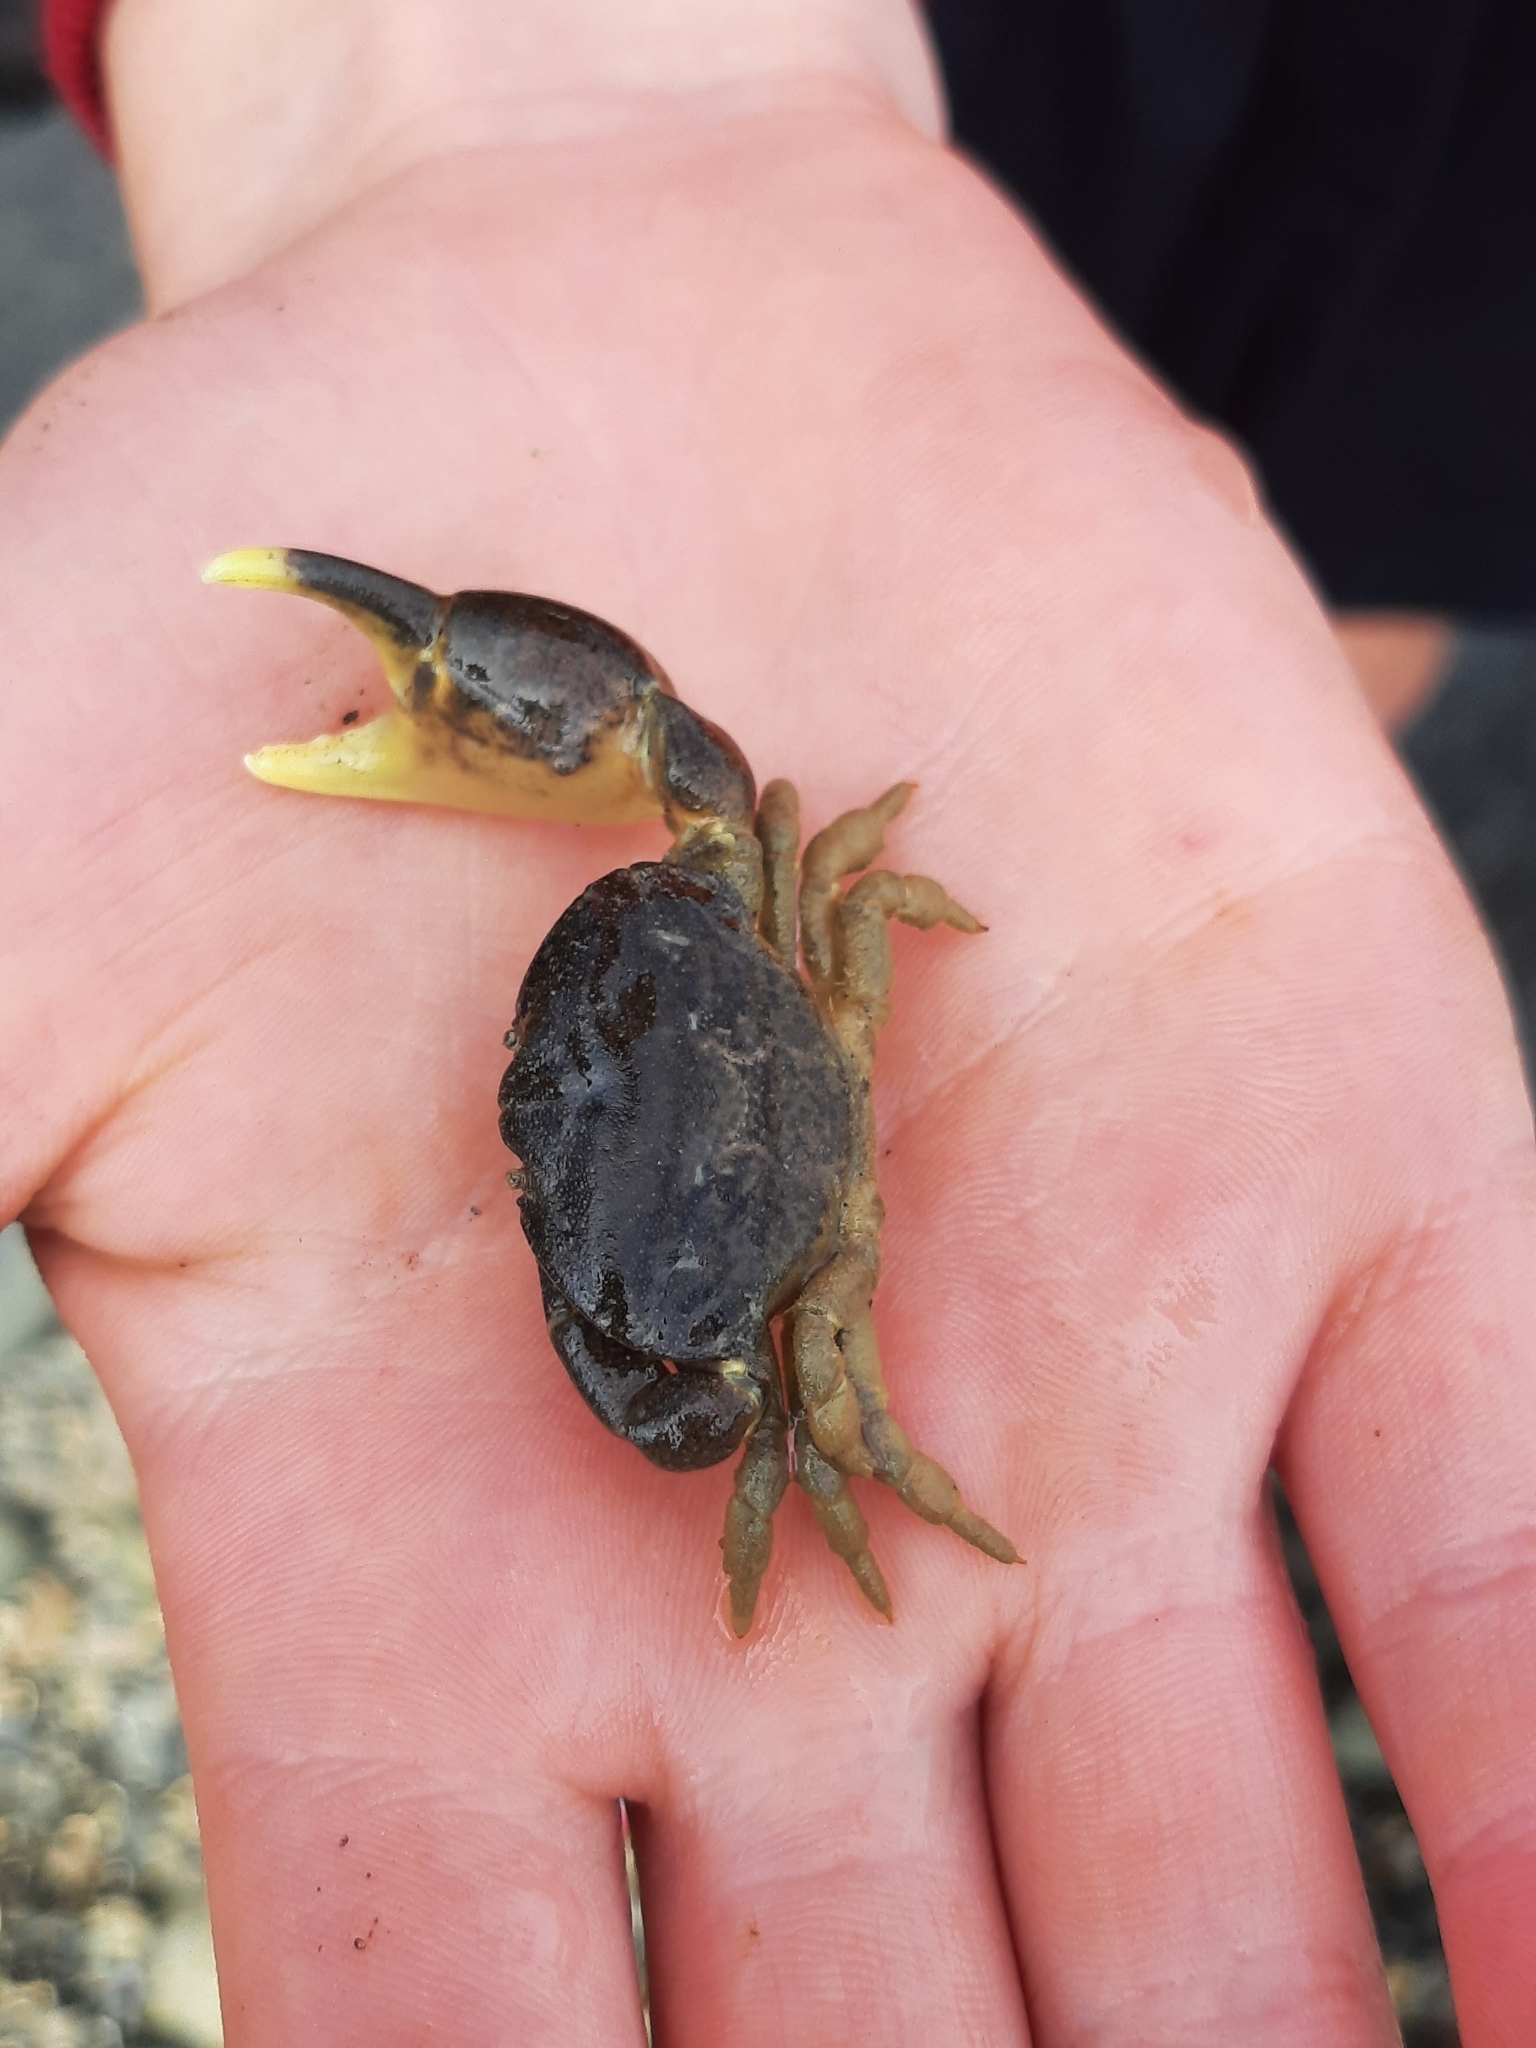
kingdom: Animalia
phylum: Arthropoda
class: Malacostraca
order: Decapoda
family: Heteroziidae
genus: Heterozius
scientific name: Heterozius rotundifrons
